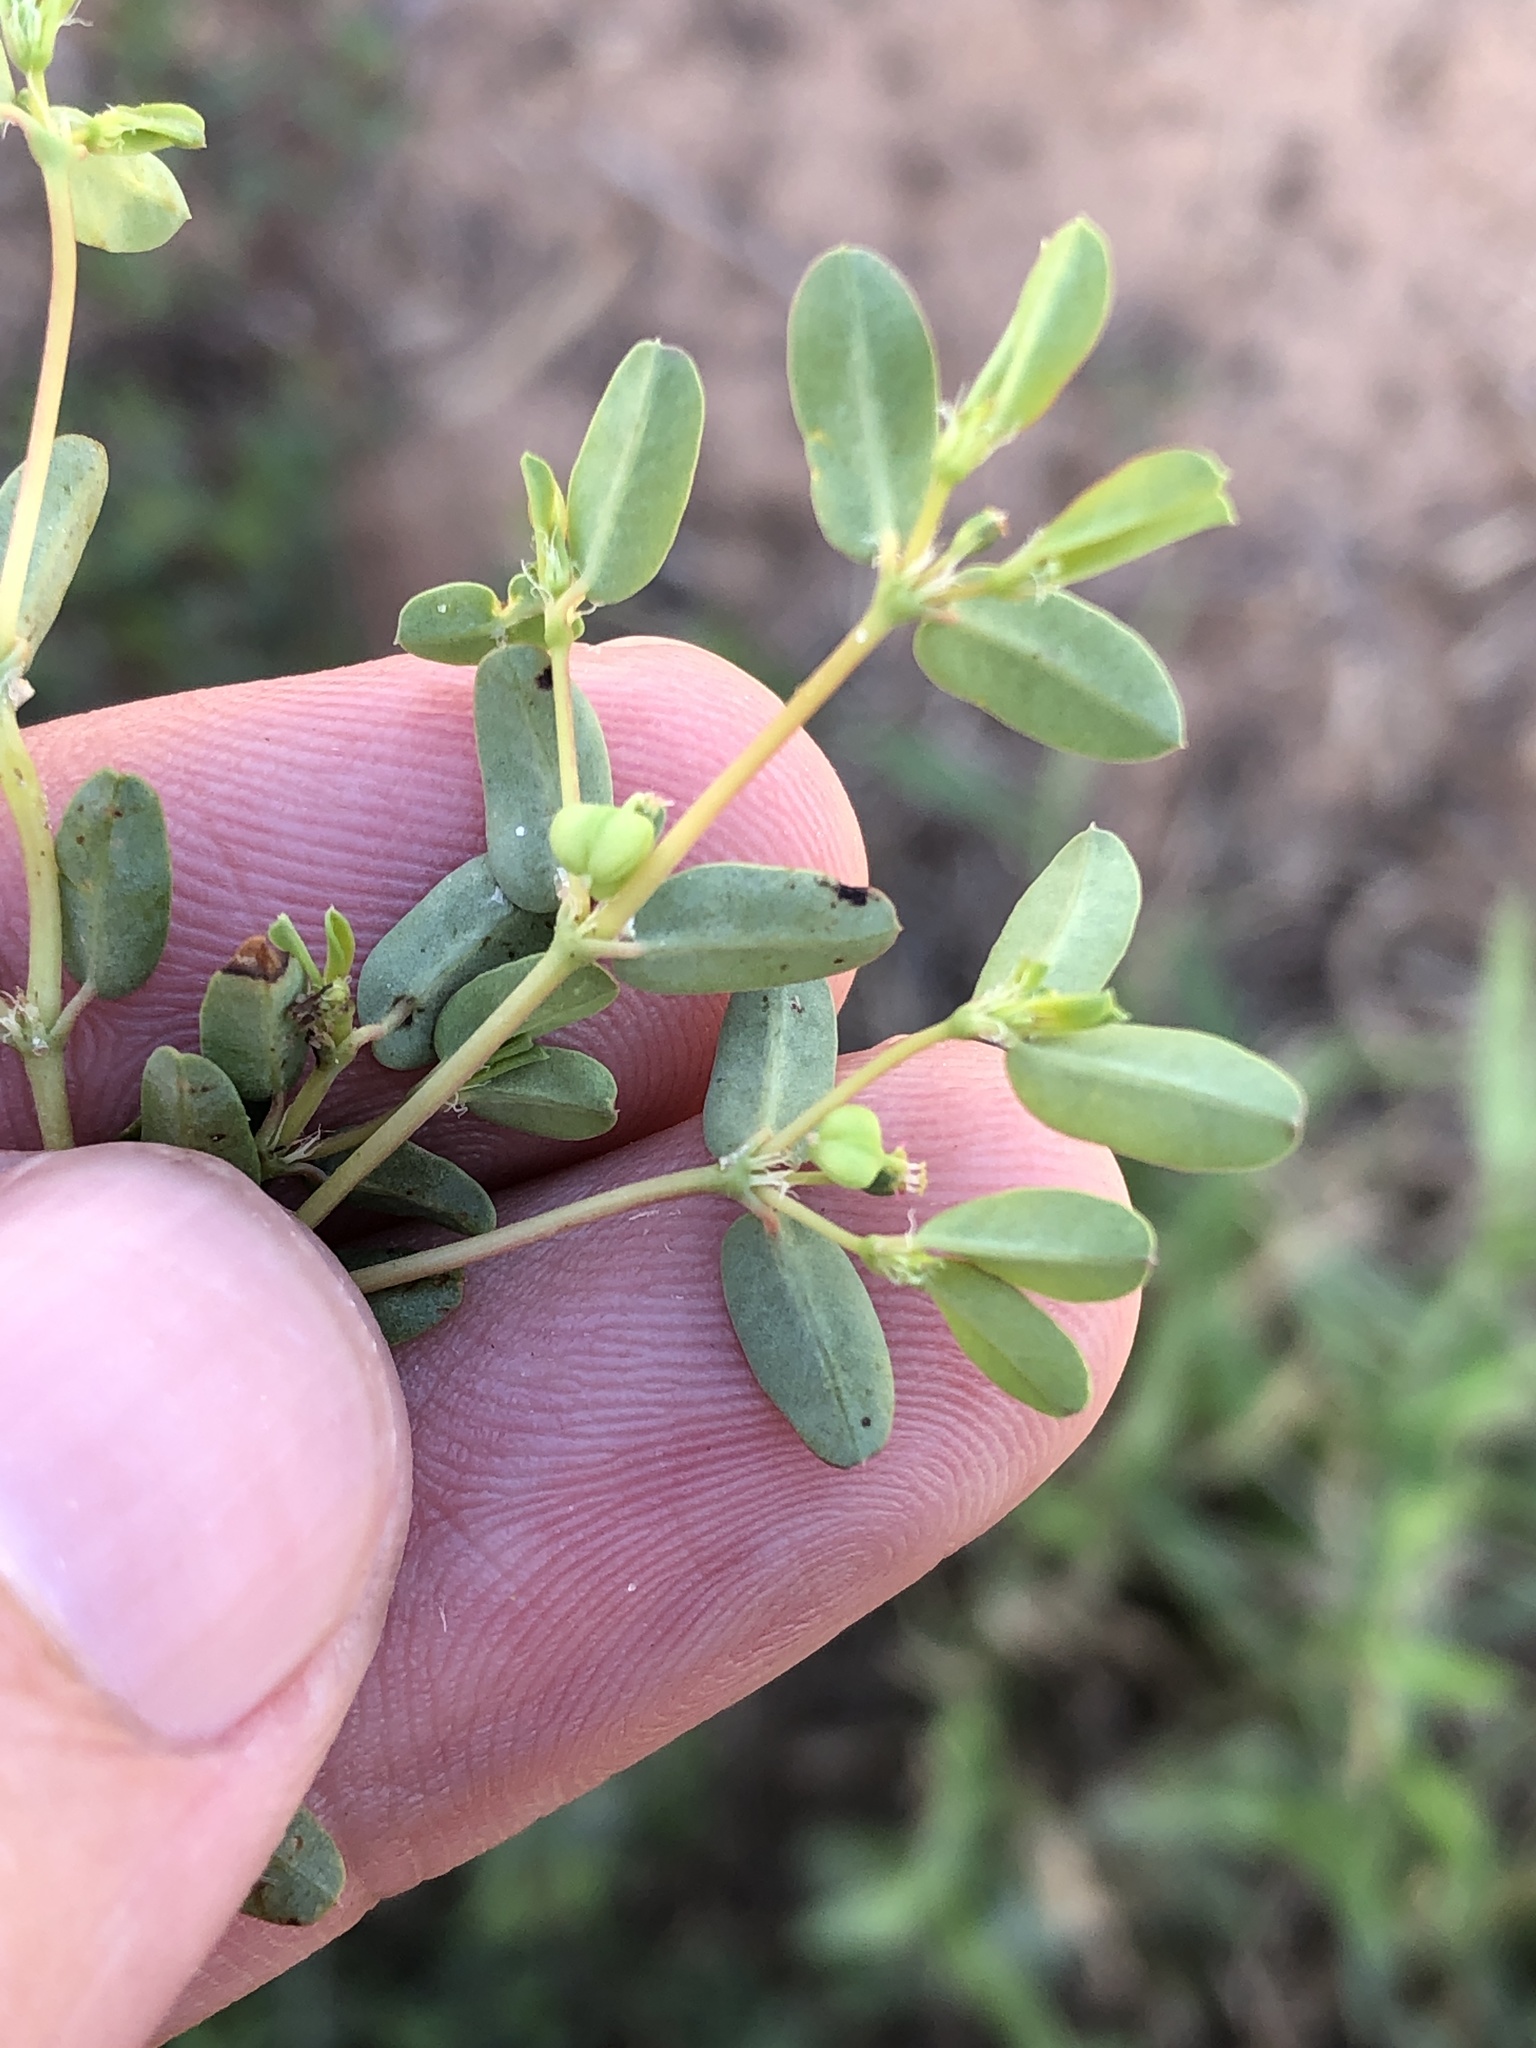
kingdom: Plantae
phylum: Tracheophyta
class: Magnoliopsida
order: Malpighiales
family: Euphorbiaceae
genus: Euphorbia
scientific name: Euphorbia geyeri
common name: Geyer's spurge
